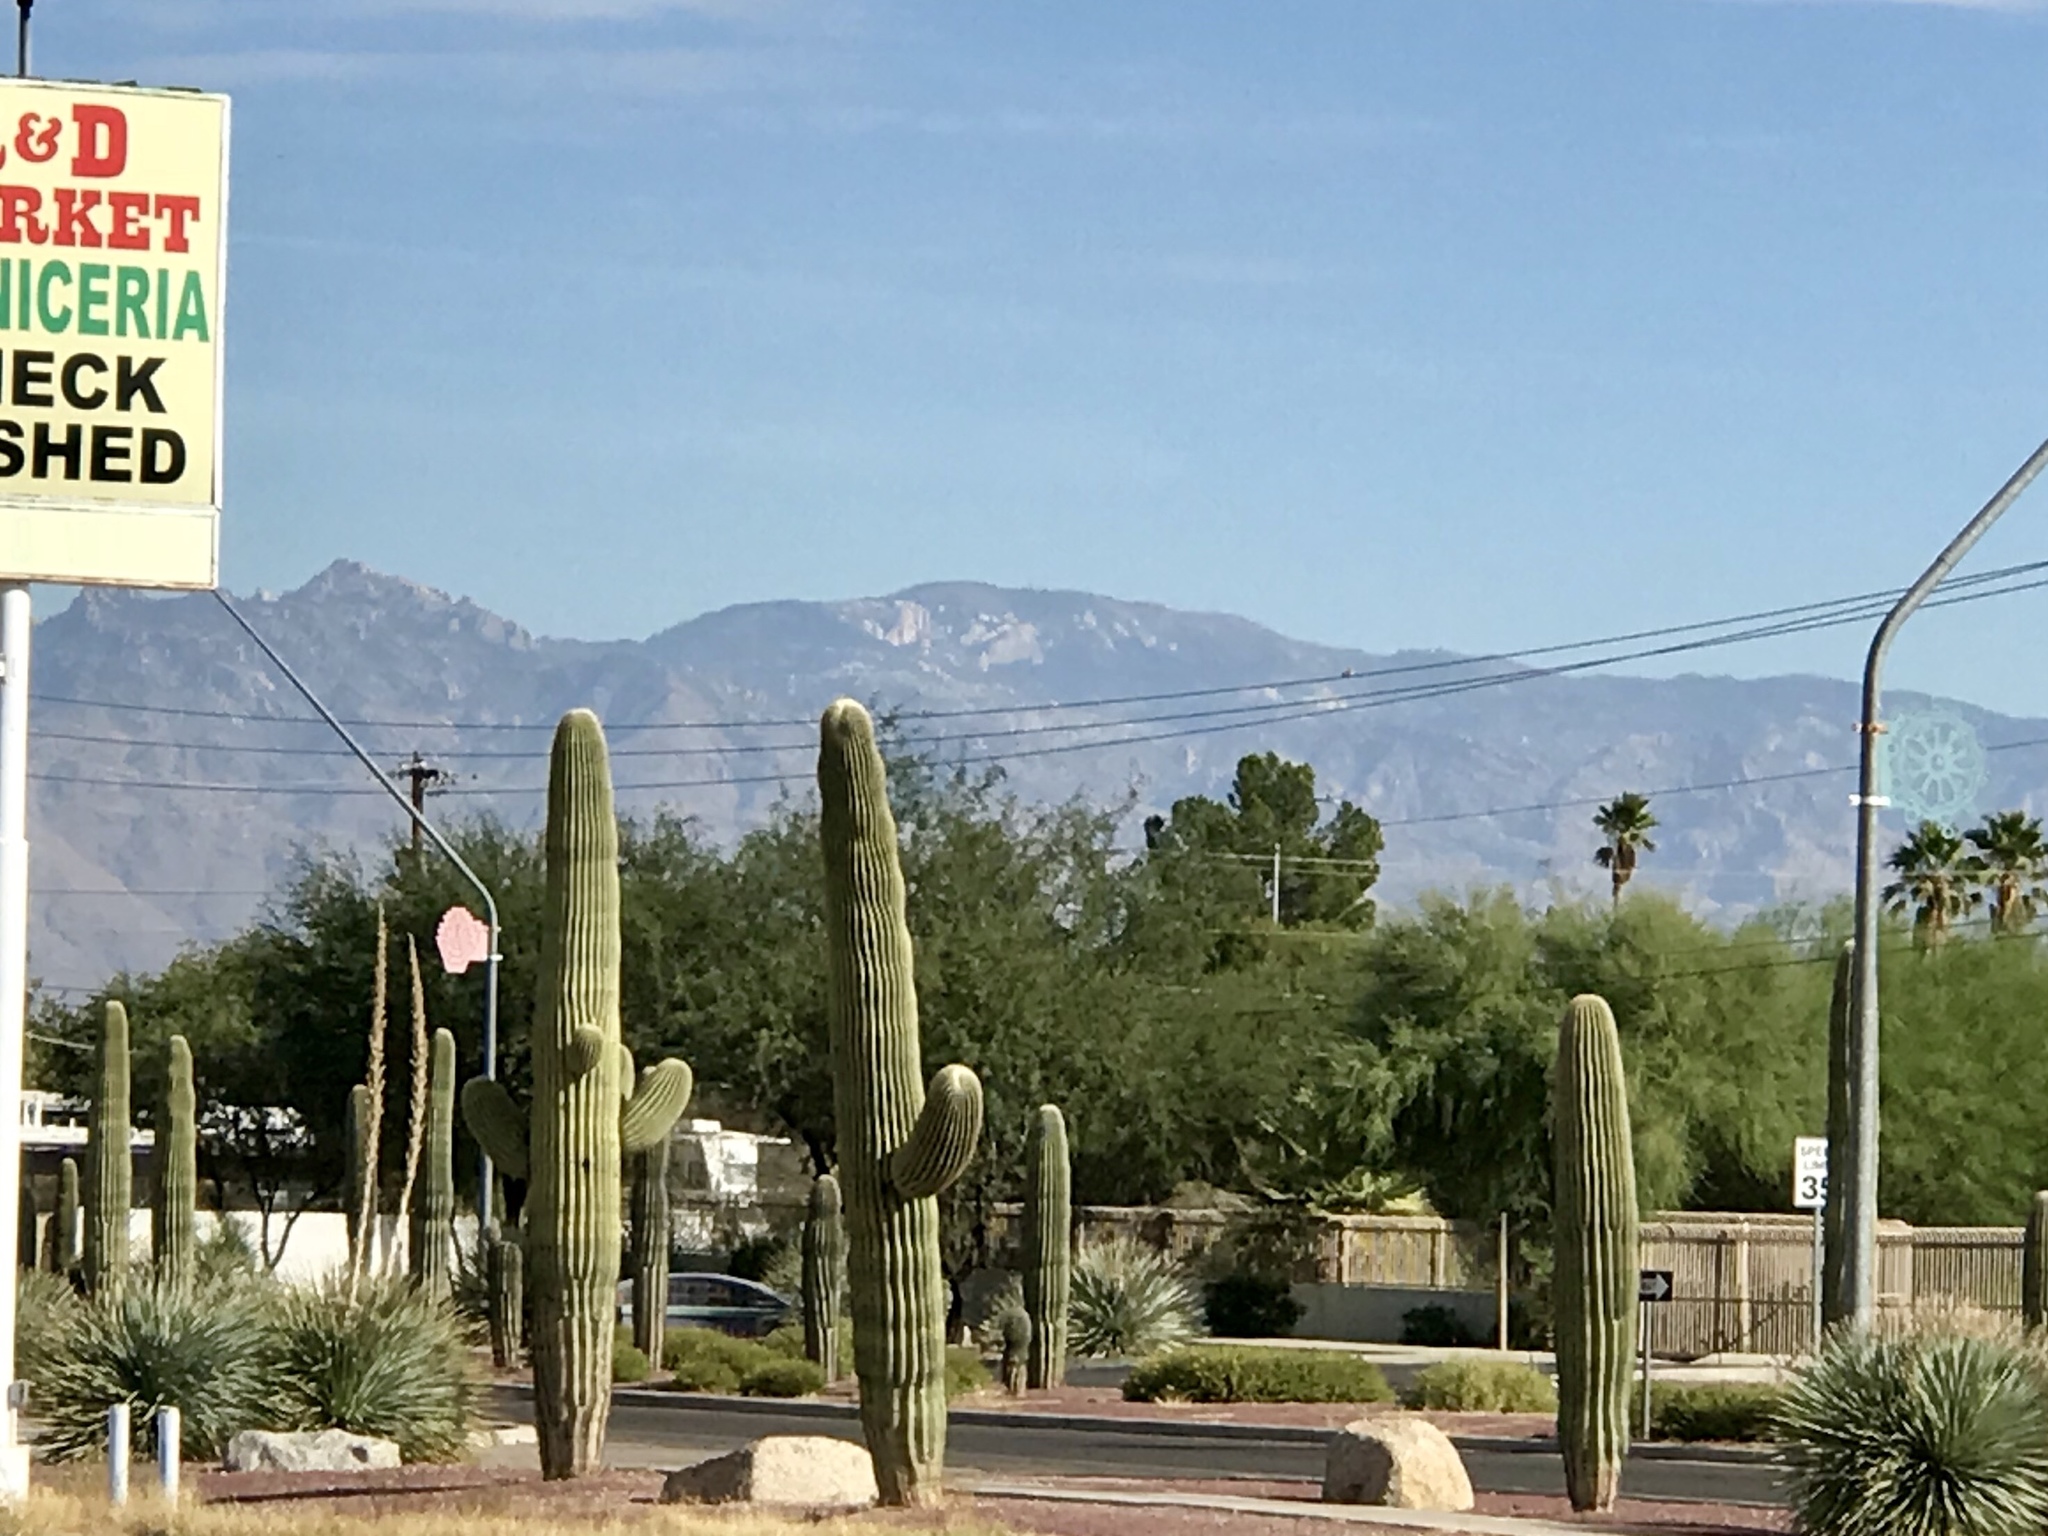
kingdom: Plantae
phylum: Tracheophyta
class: Magnoliopsida
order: Caryophyllales
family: Cactaceae
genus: Carnegiea
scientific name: Carnegiea gigantea
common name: Saguaro
